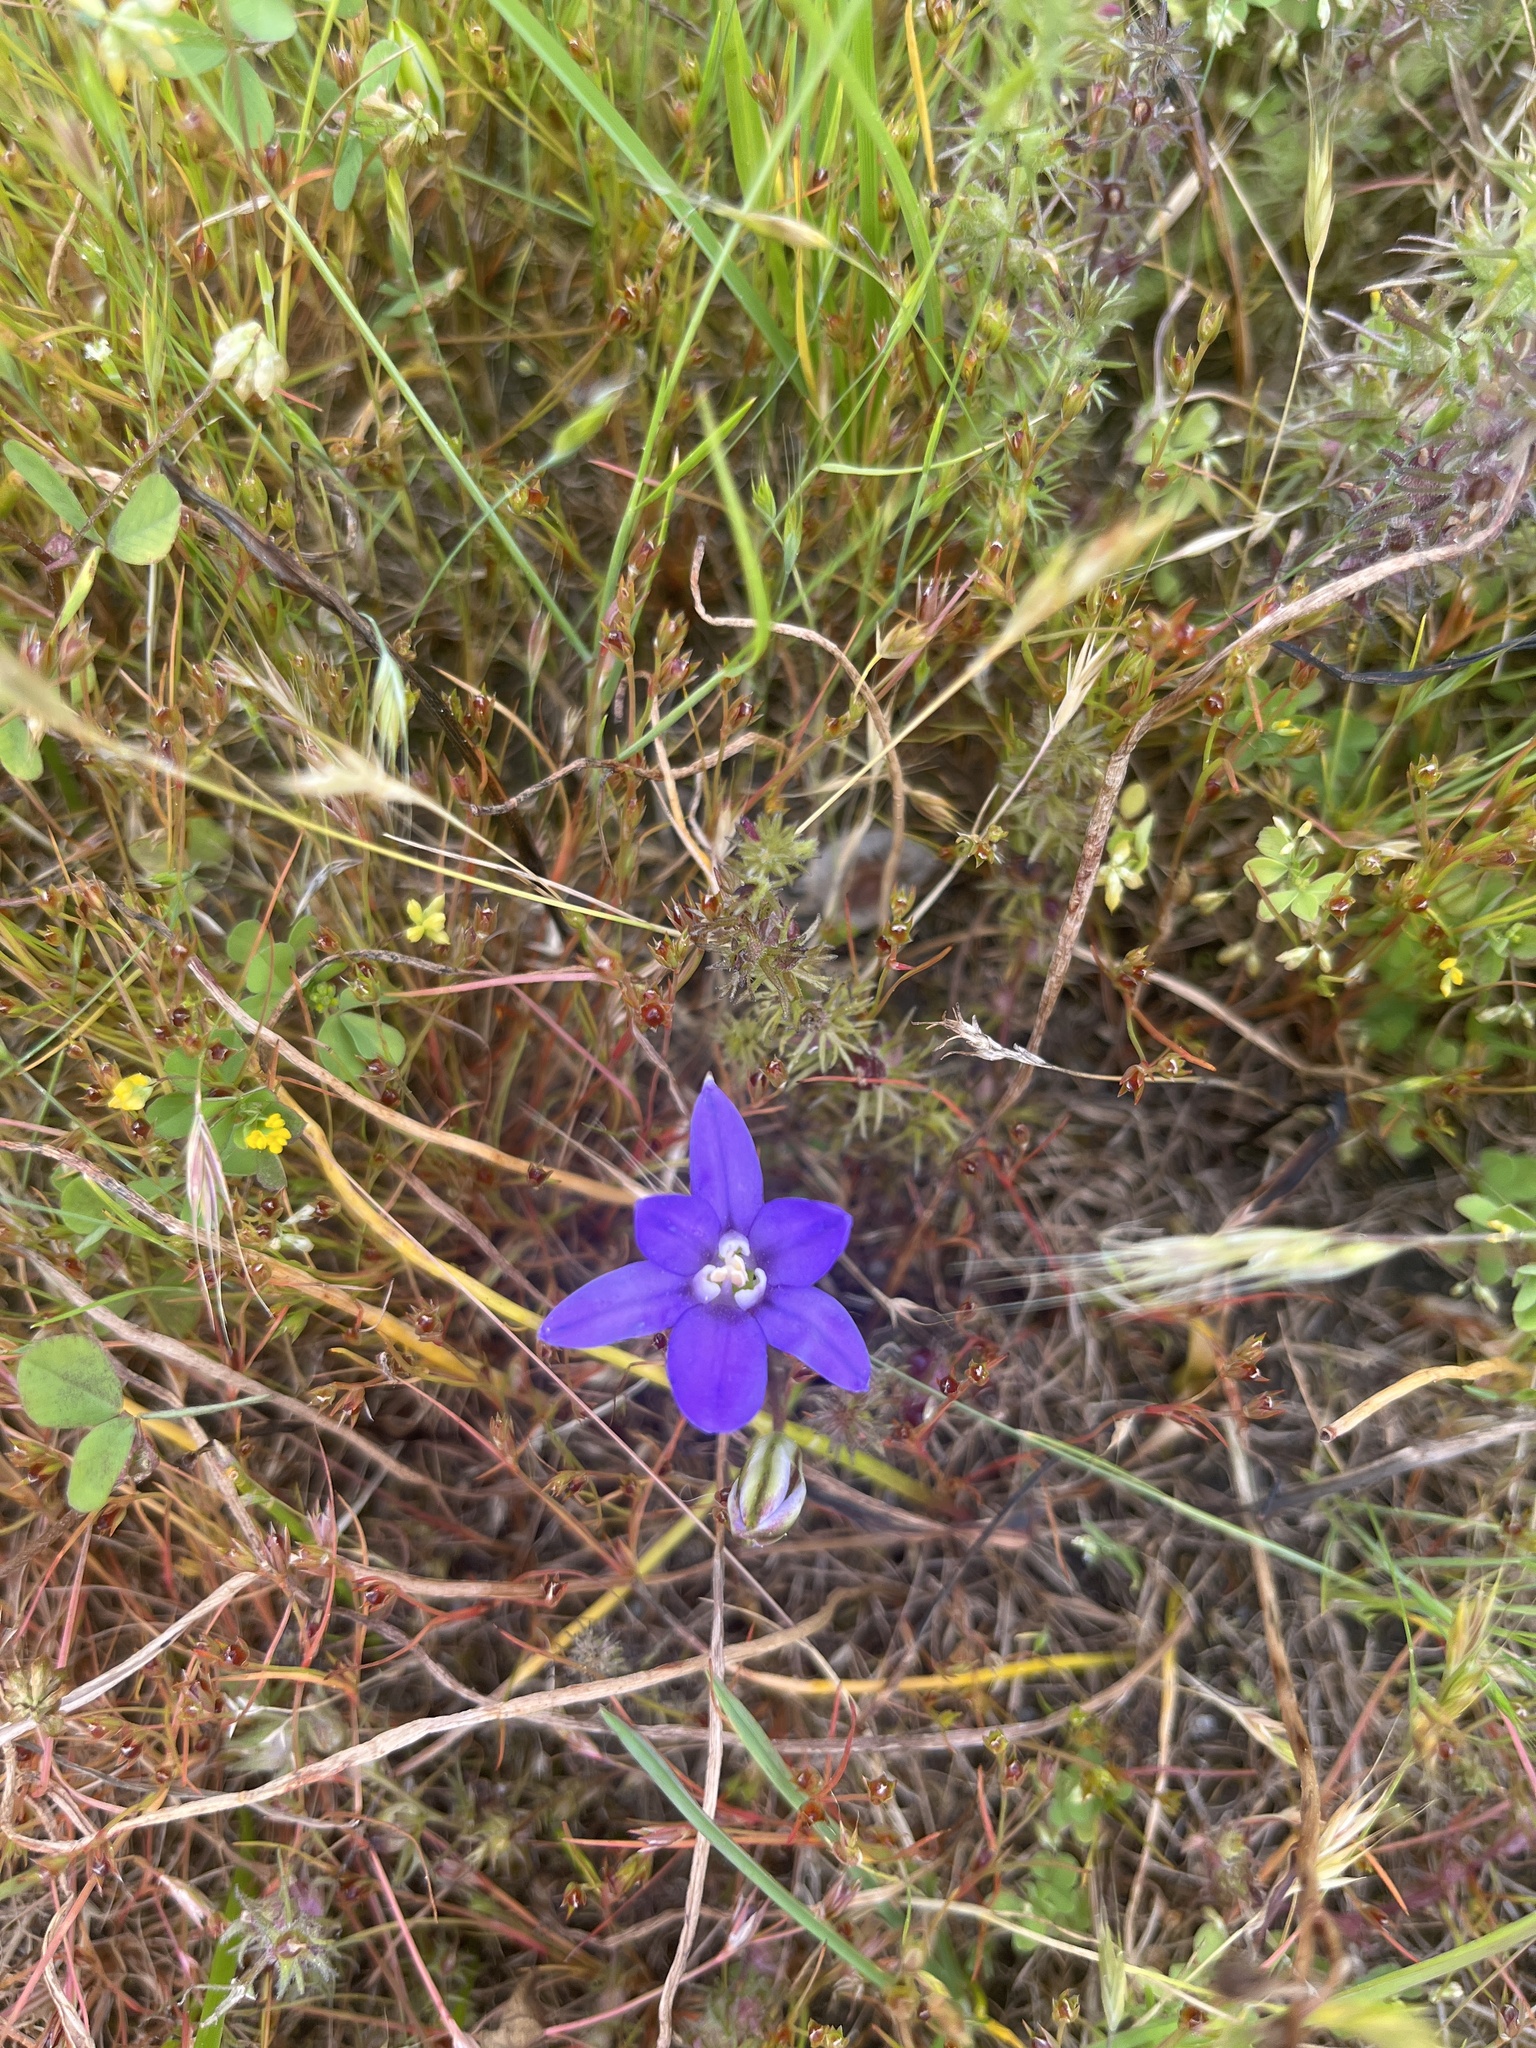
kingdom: Plantae
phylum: Tracheophyta
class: Liliopsida
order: Asparagales
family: Asparagaceae
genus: Brodiaea
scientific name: Brodiaea coronaria
